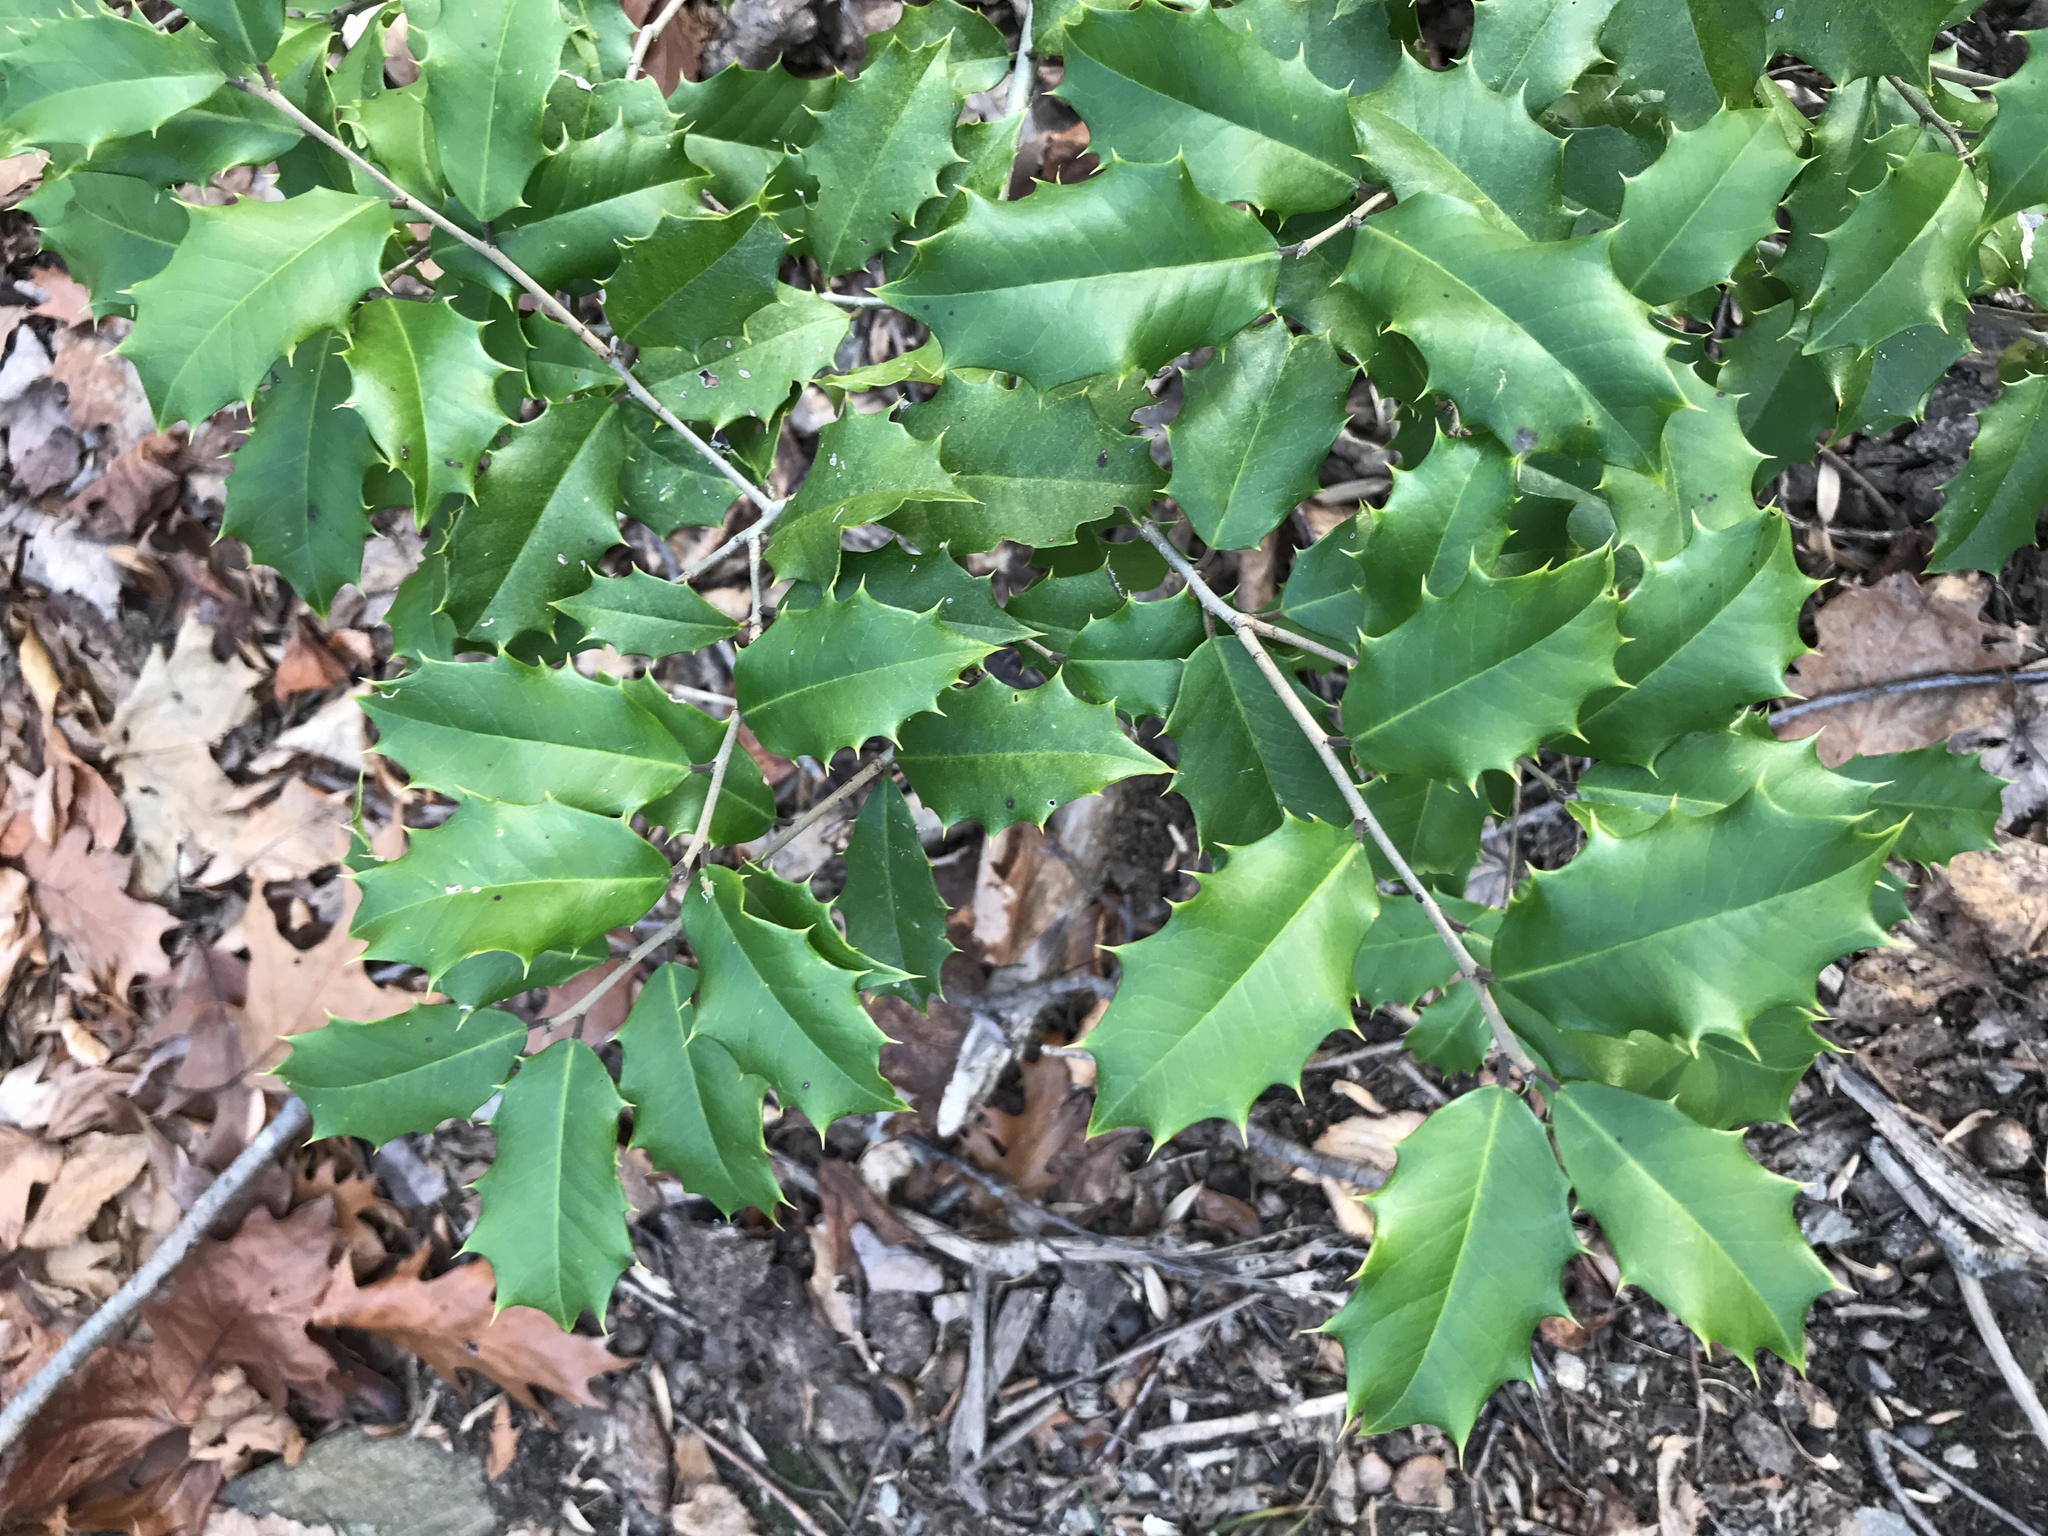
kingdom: Plantae
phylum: Tracheophyta
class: Magnoliopsida
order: Aquifoliales
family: Aquifoliaceae
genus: Ilex
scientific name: Ilex opaca
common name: American holly
